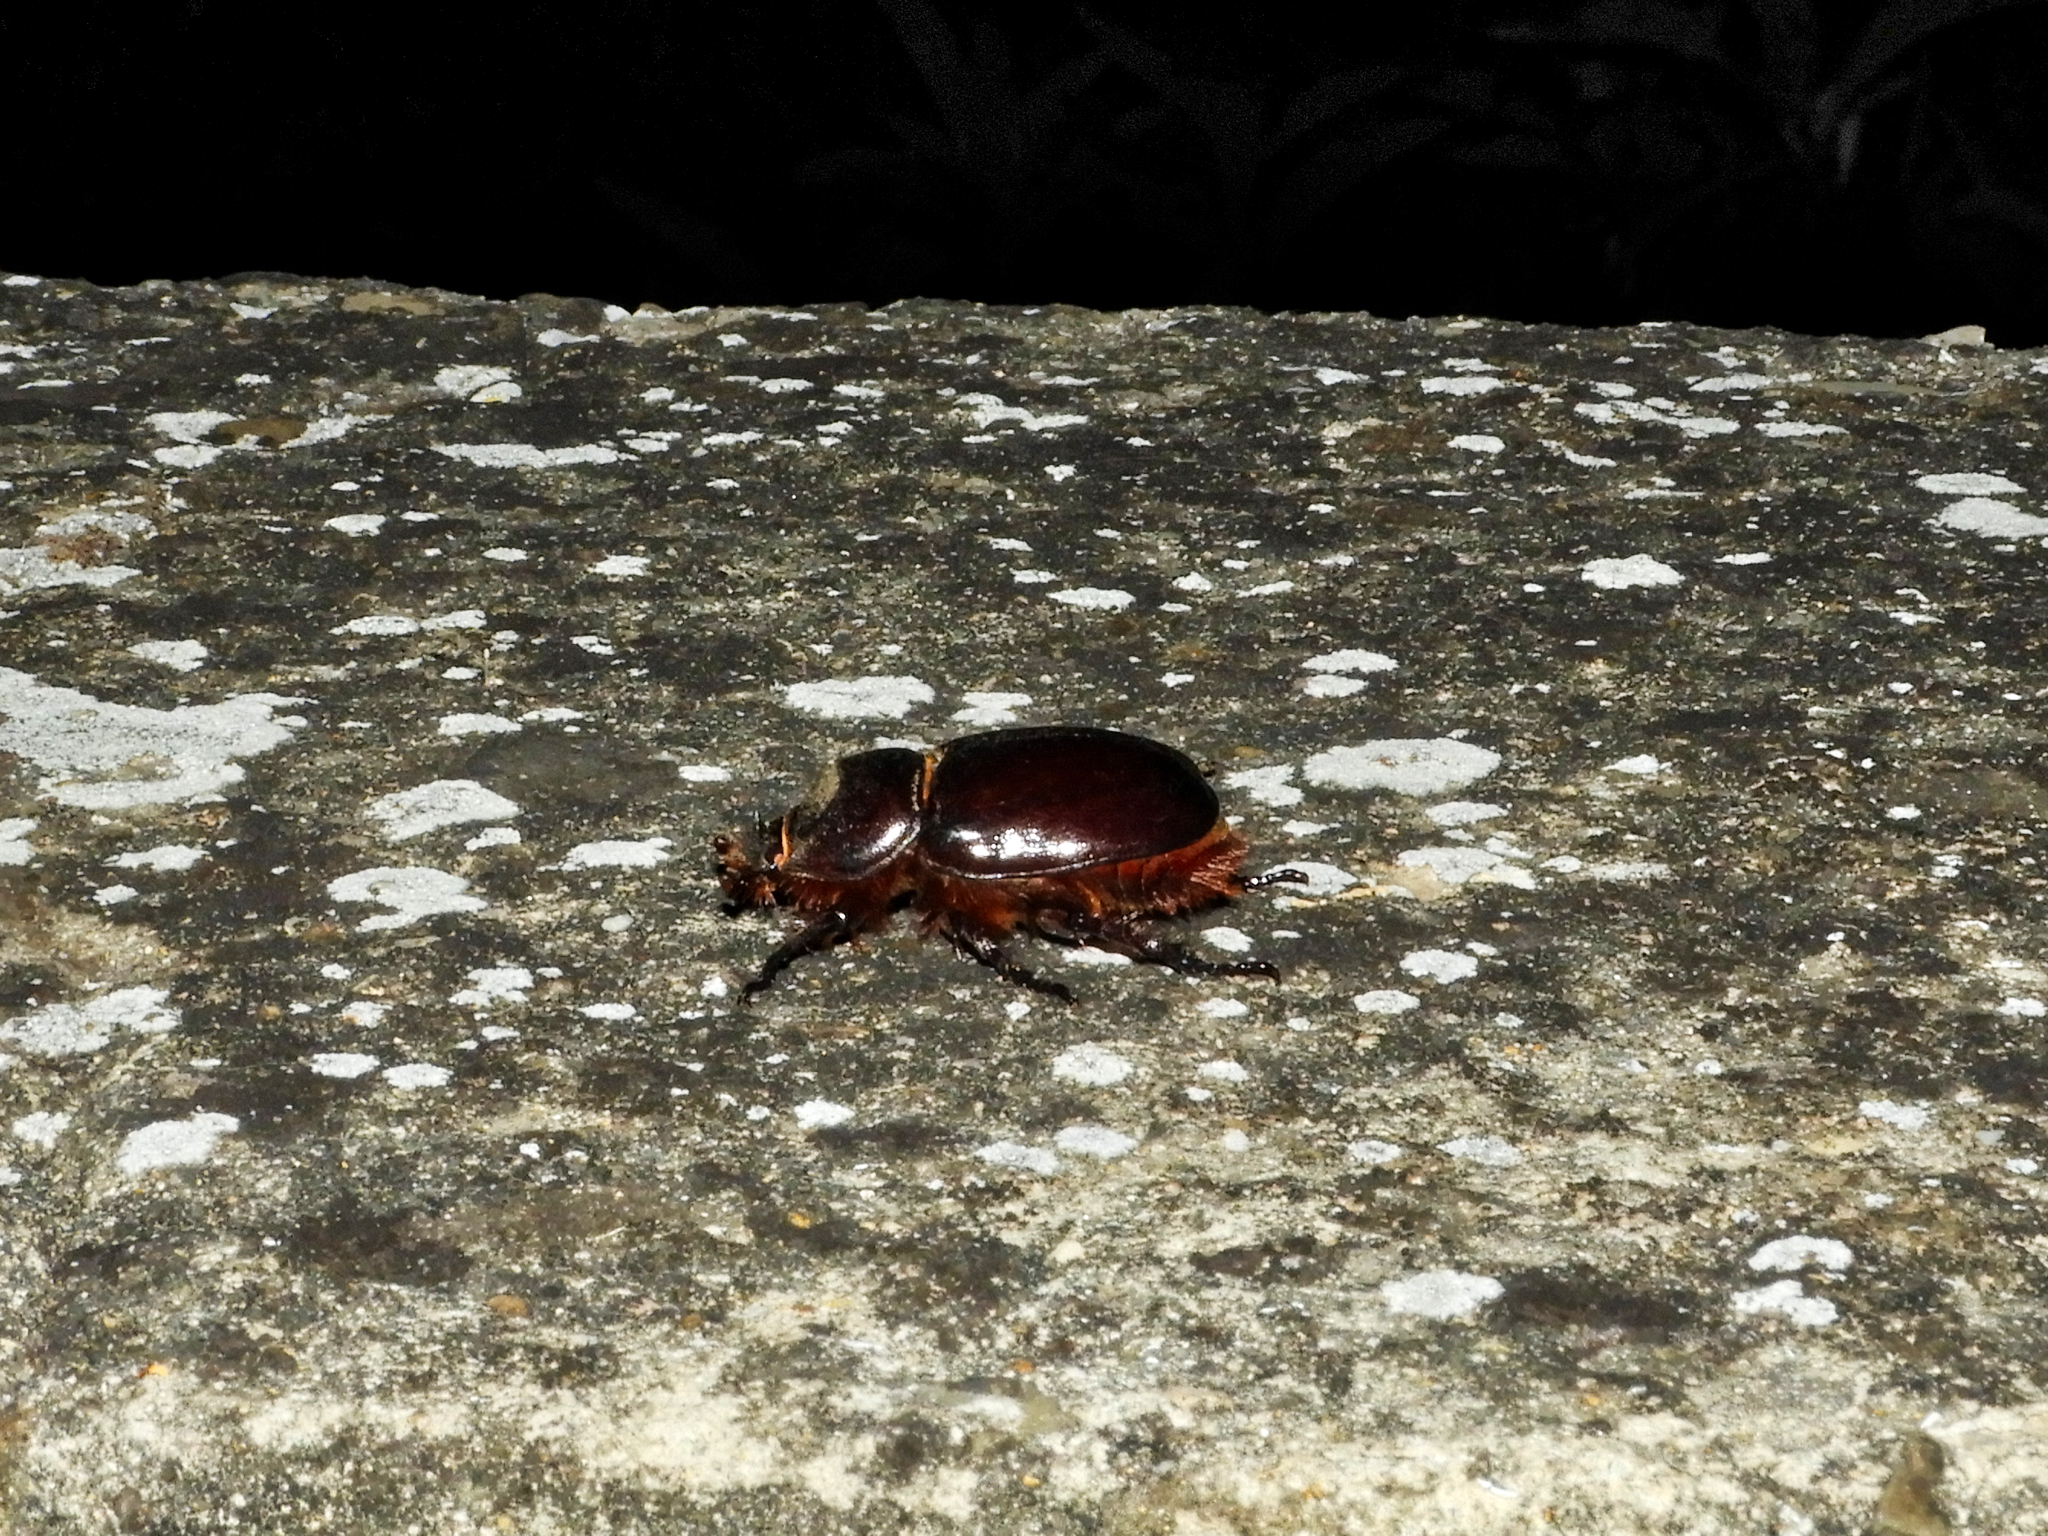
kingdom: Animalia
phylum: Arthropoda
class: Insecta
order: Coleoptera
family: Scarabaeidae
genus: Oryctes
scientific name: Oryctes nasicornis
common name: European rhinoceros beetle
